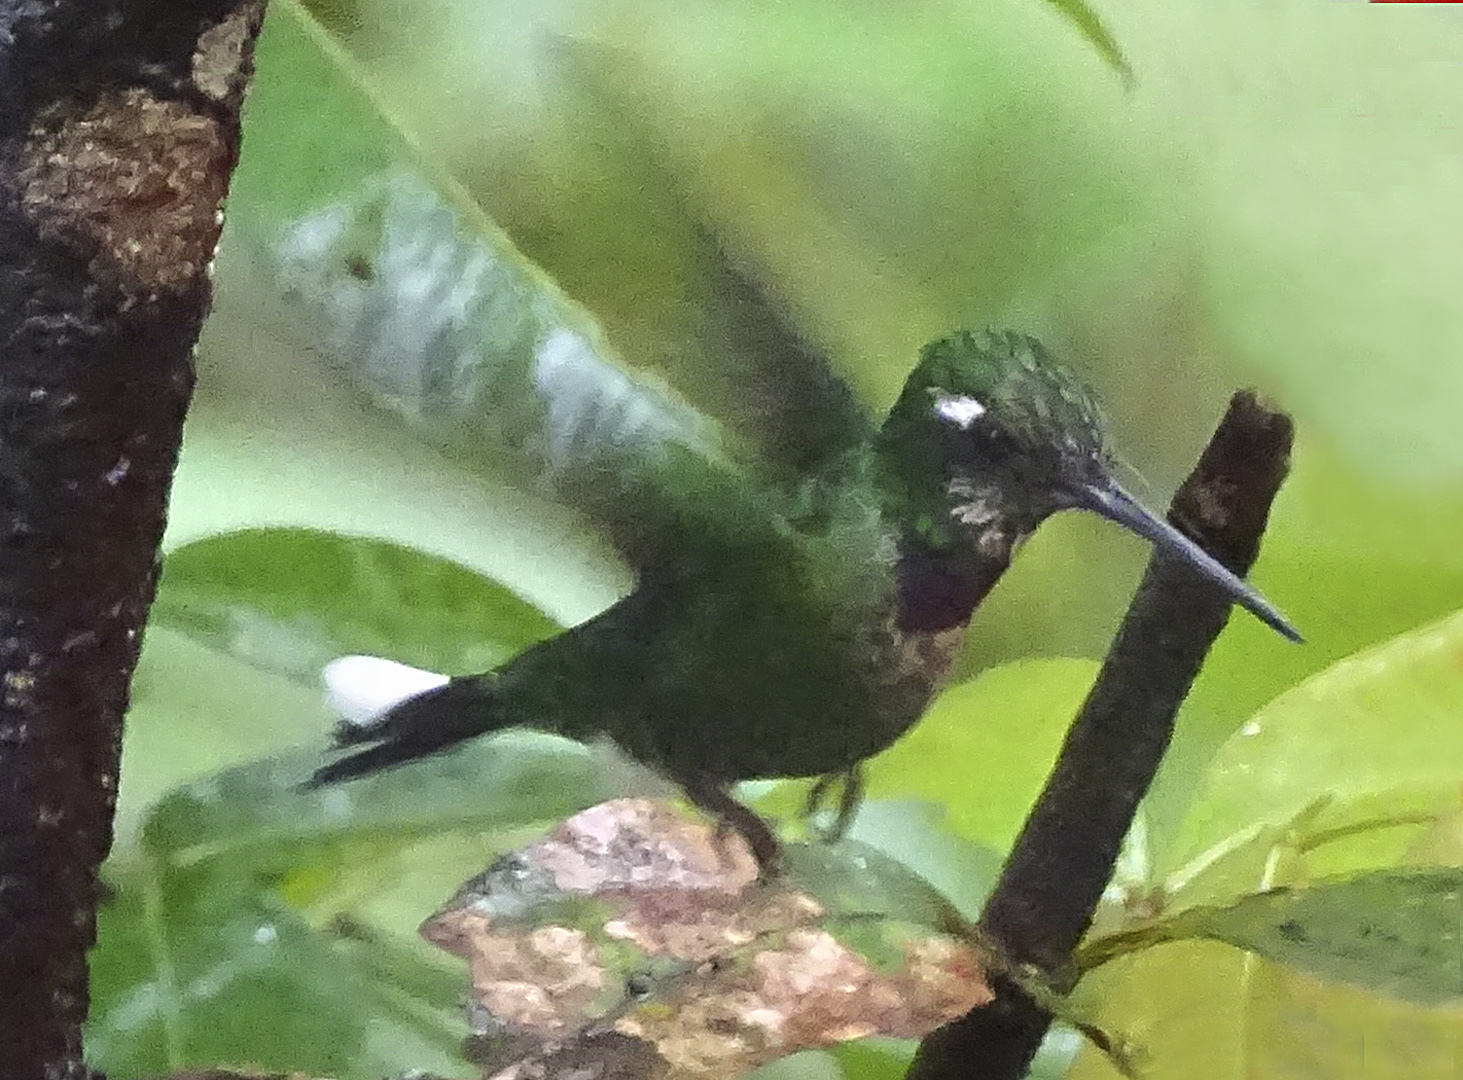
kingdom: Animalia
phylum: Chordata
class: Aves
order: Apodiformes
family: Trochilidae
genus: Urosticte
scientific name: Urosticte benjamini
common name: Purple-bibbed whitetip
